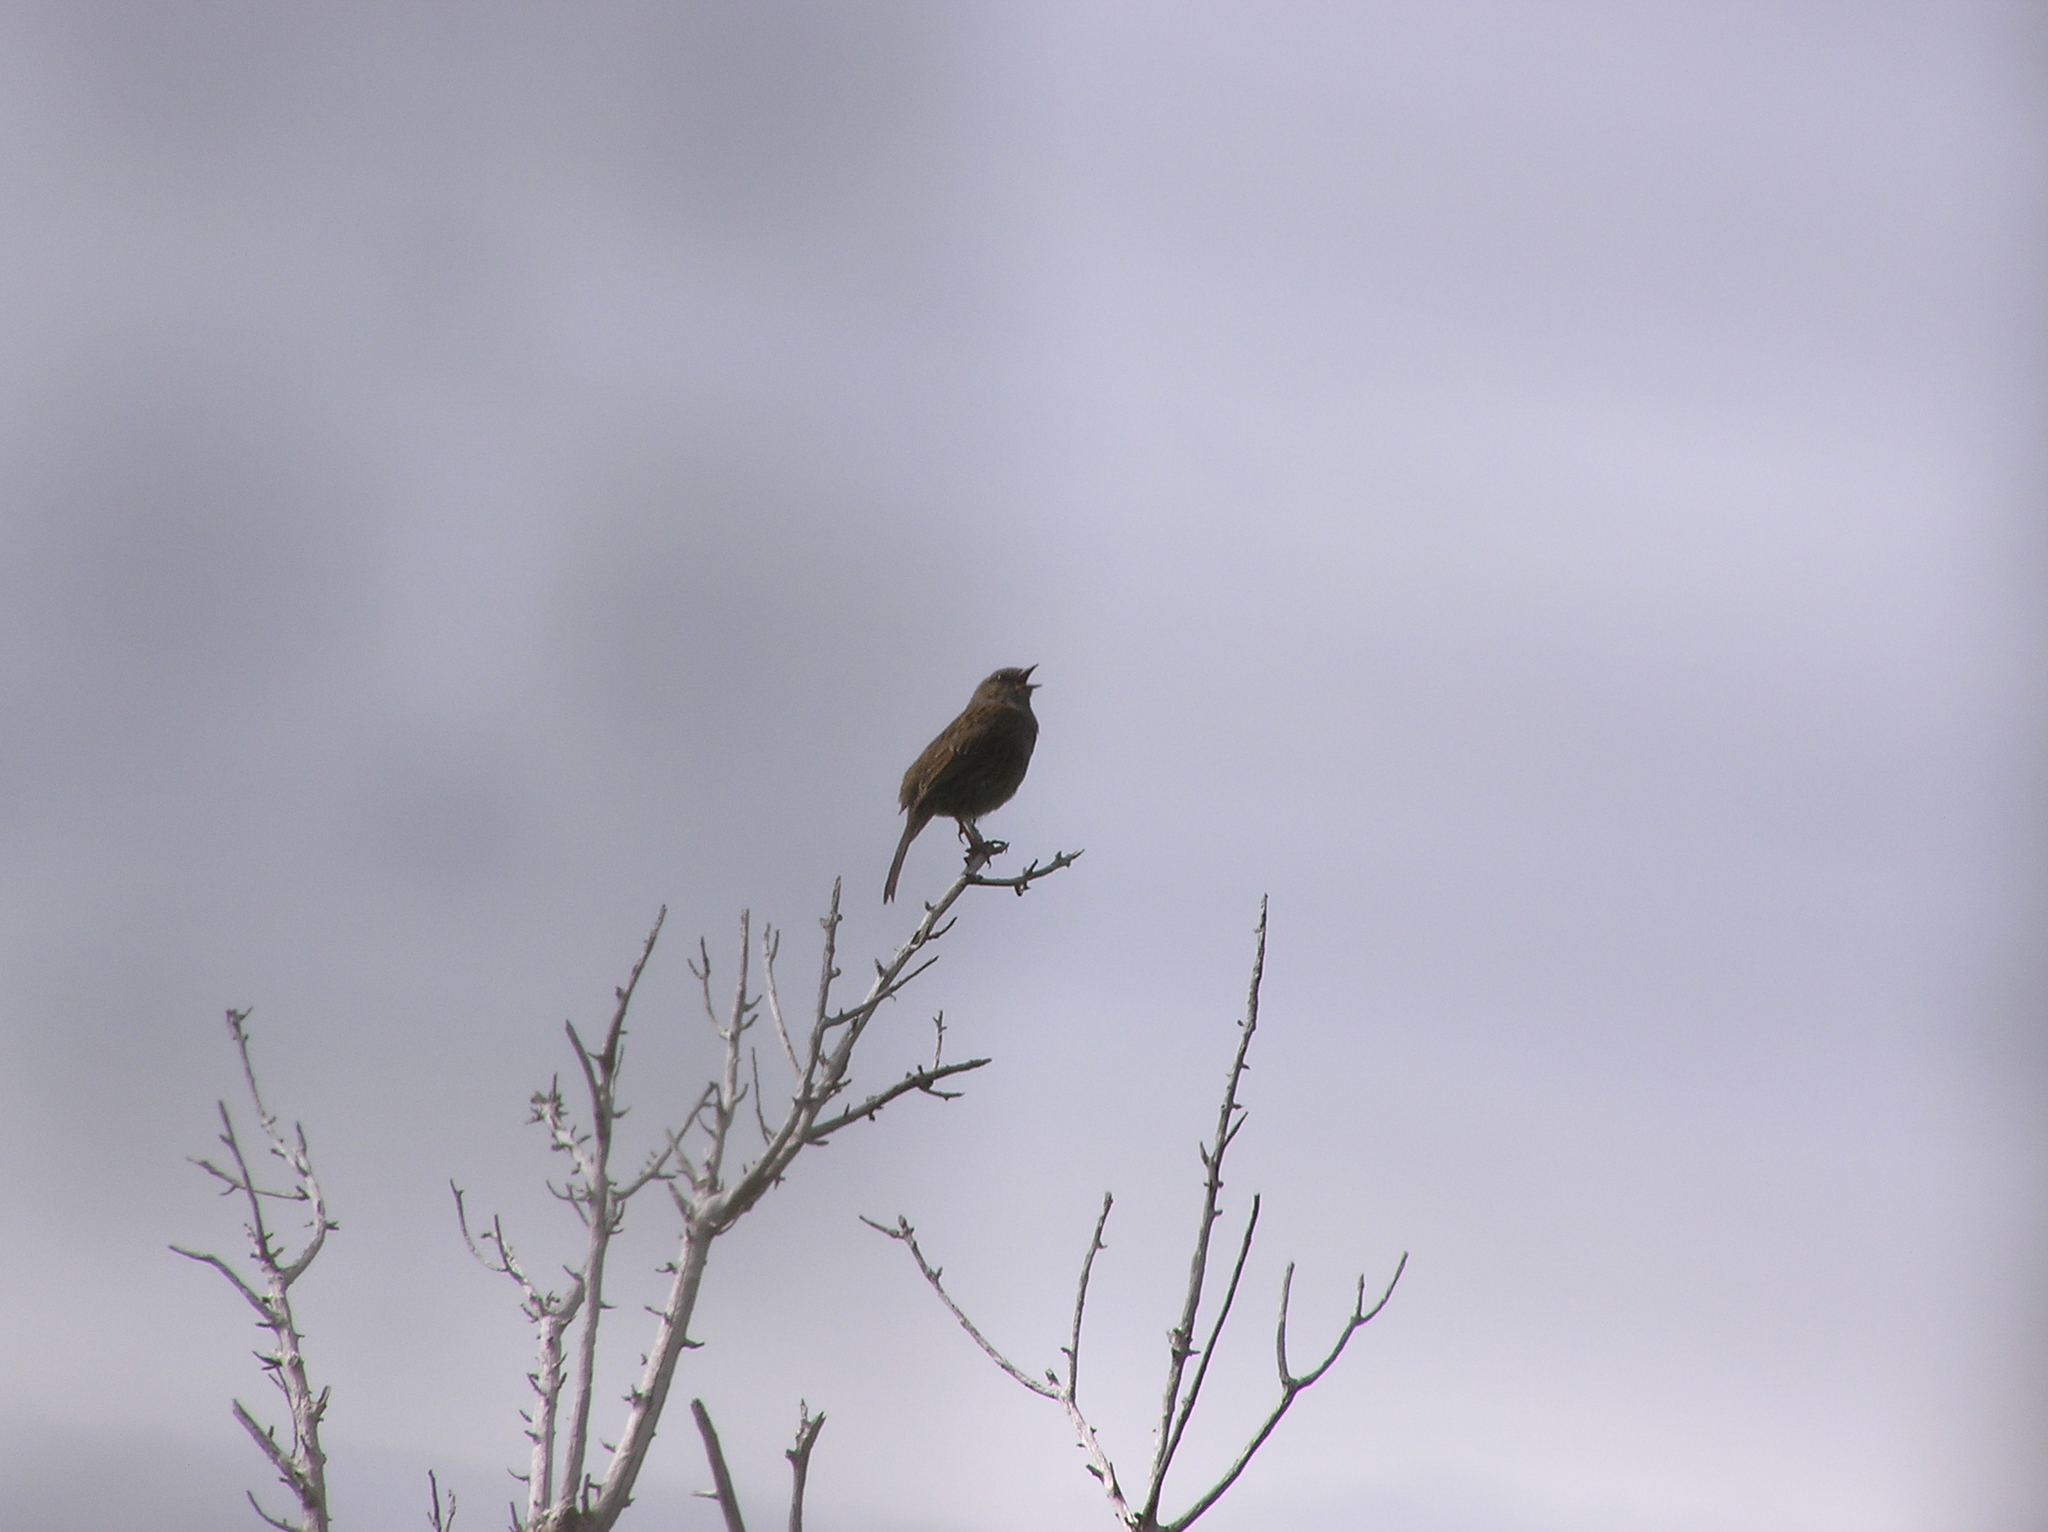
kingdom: Animalia
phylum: Chordata
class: Aves
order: Passeriformes
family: Prunellidae
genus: Prunella
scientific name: Prunella modularis
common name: Dunnock
